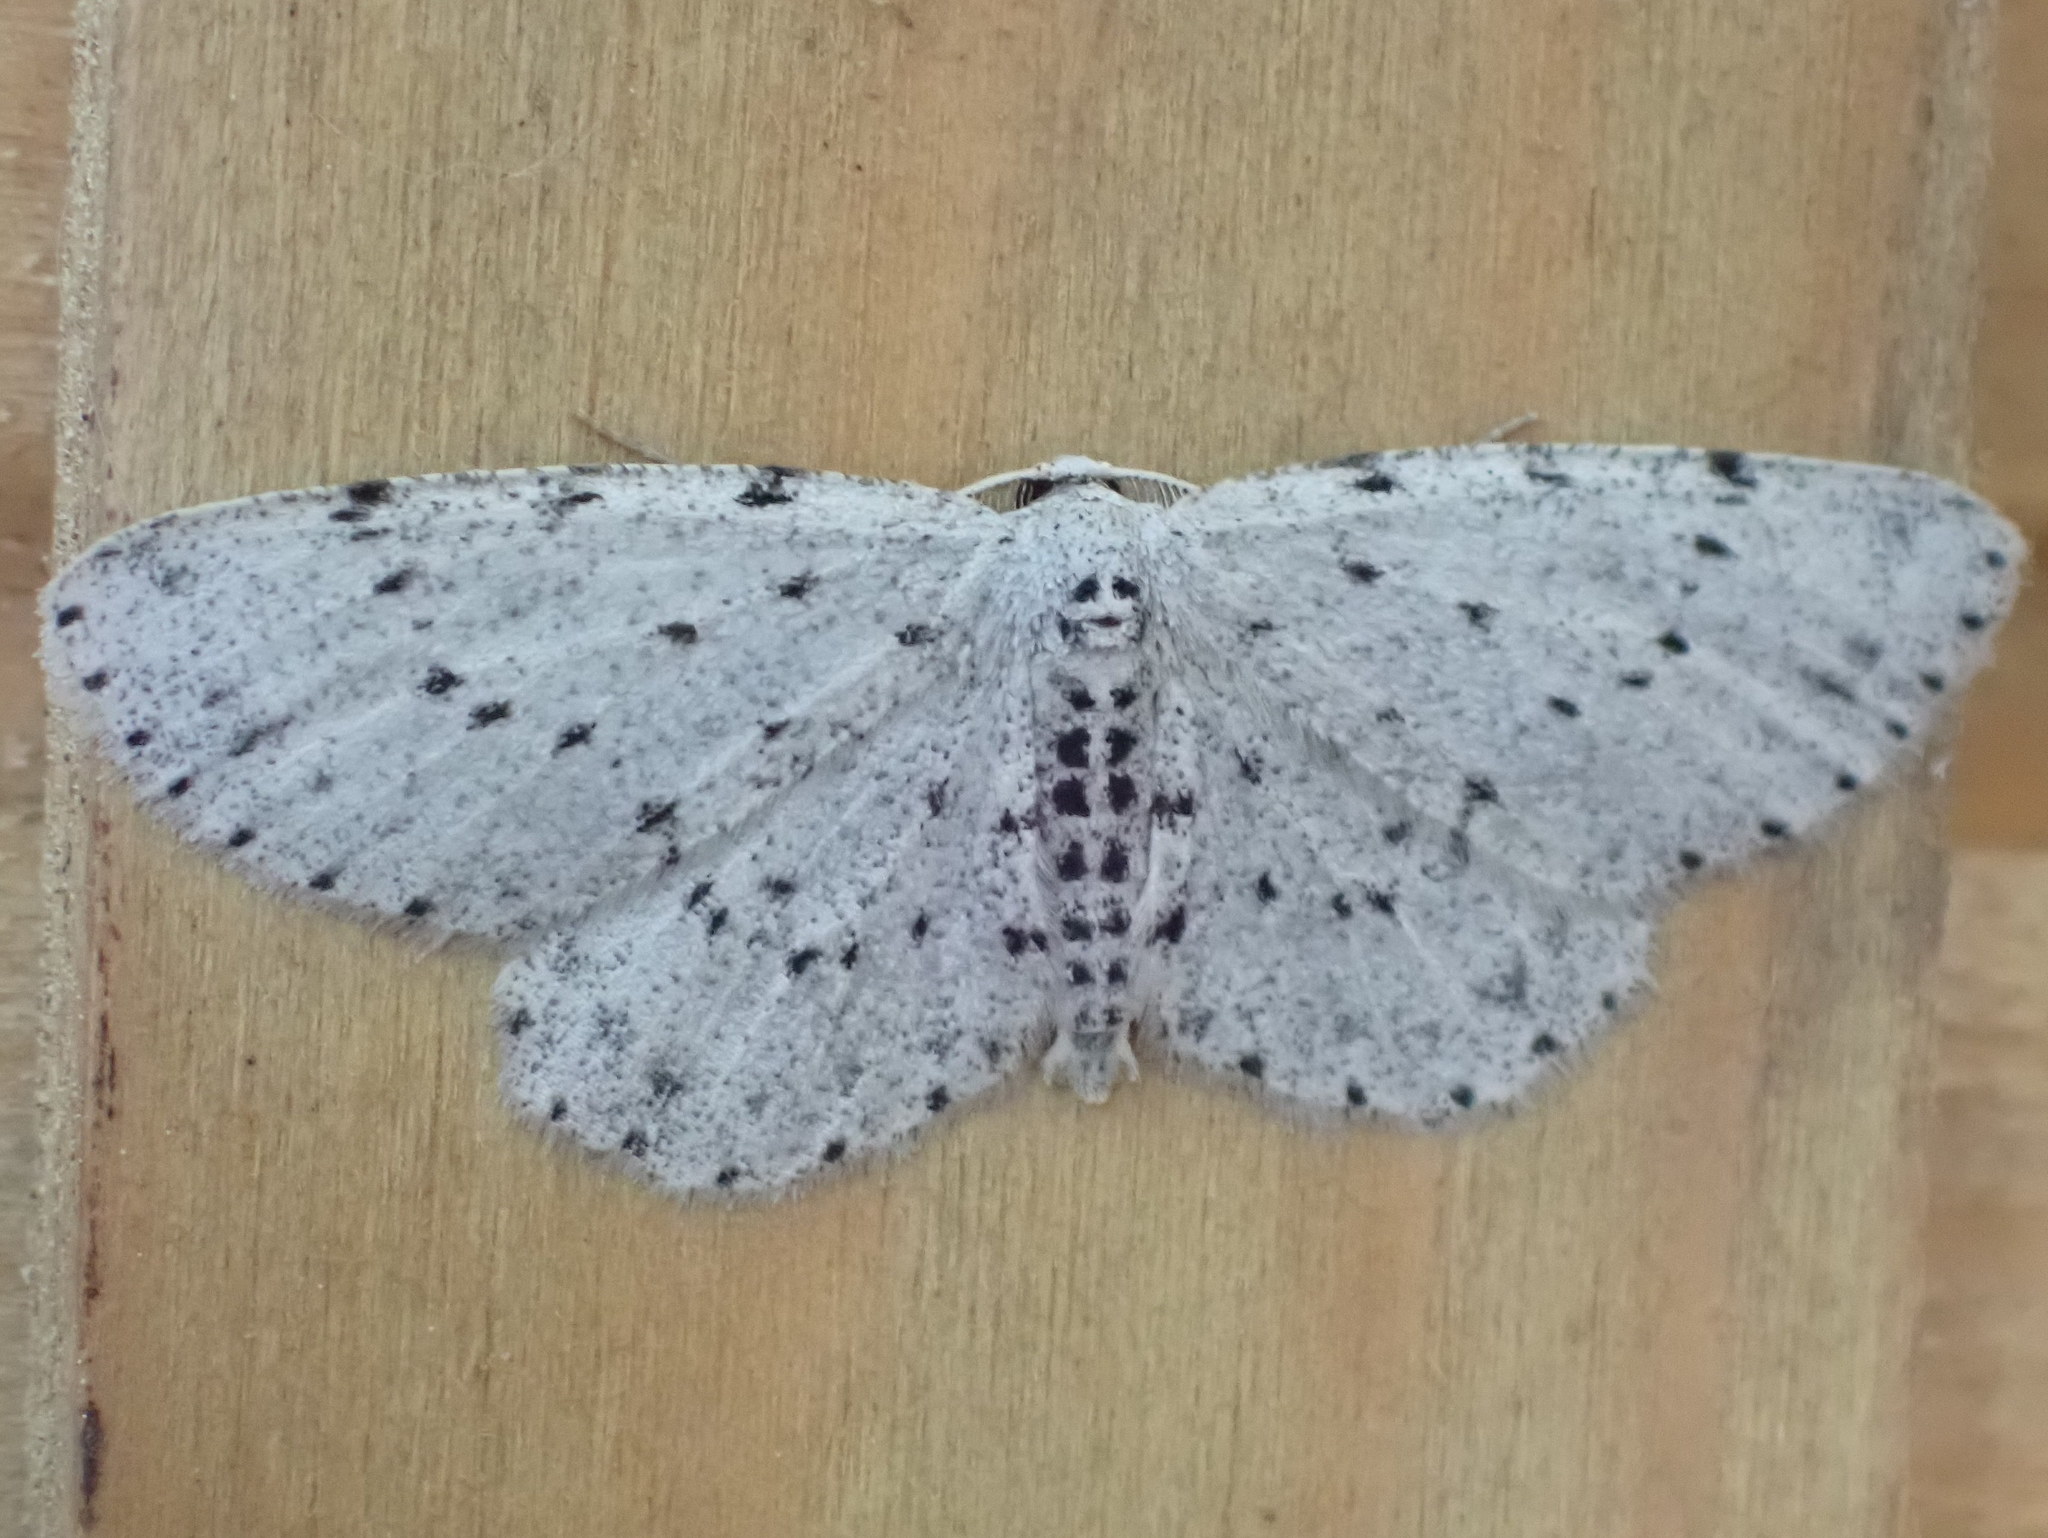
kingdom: Animalia
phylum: Arthropoda
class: Insecta
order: Lepidoptera
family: Geometridae
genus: Glena
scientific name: Glena cribrataria
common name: Dotted gray
